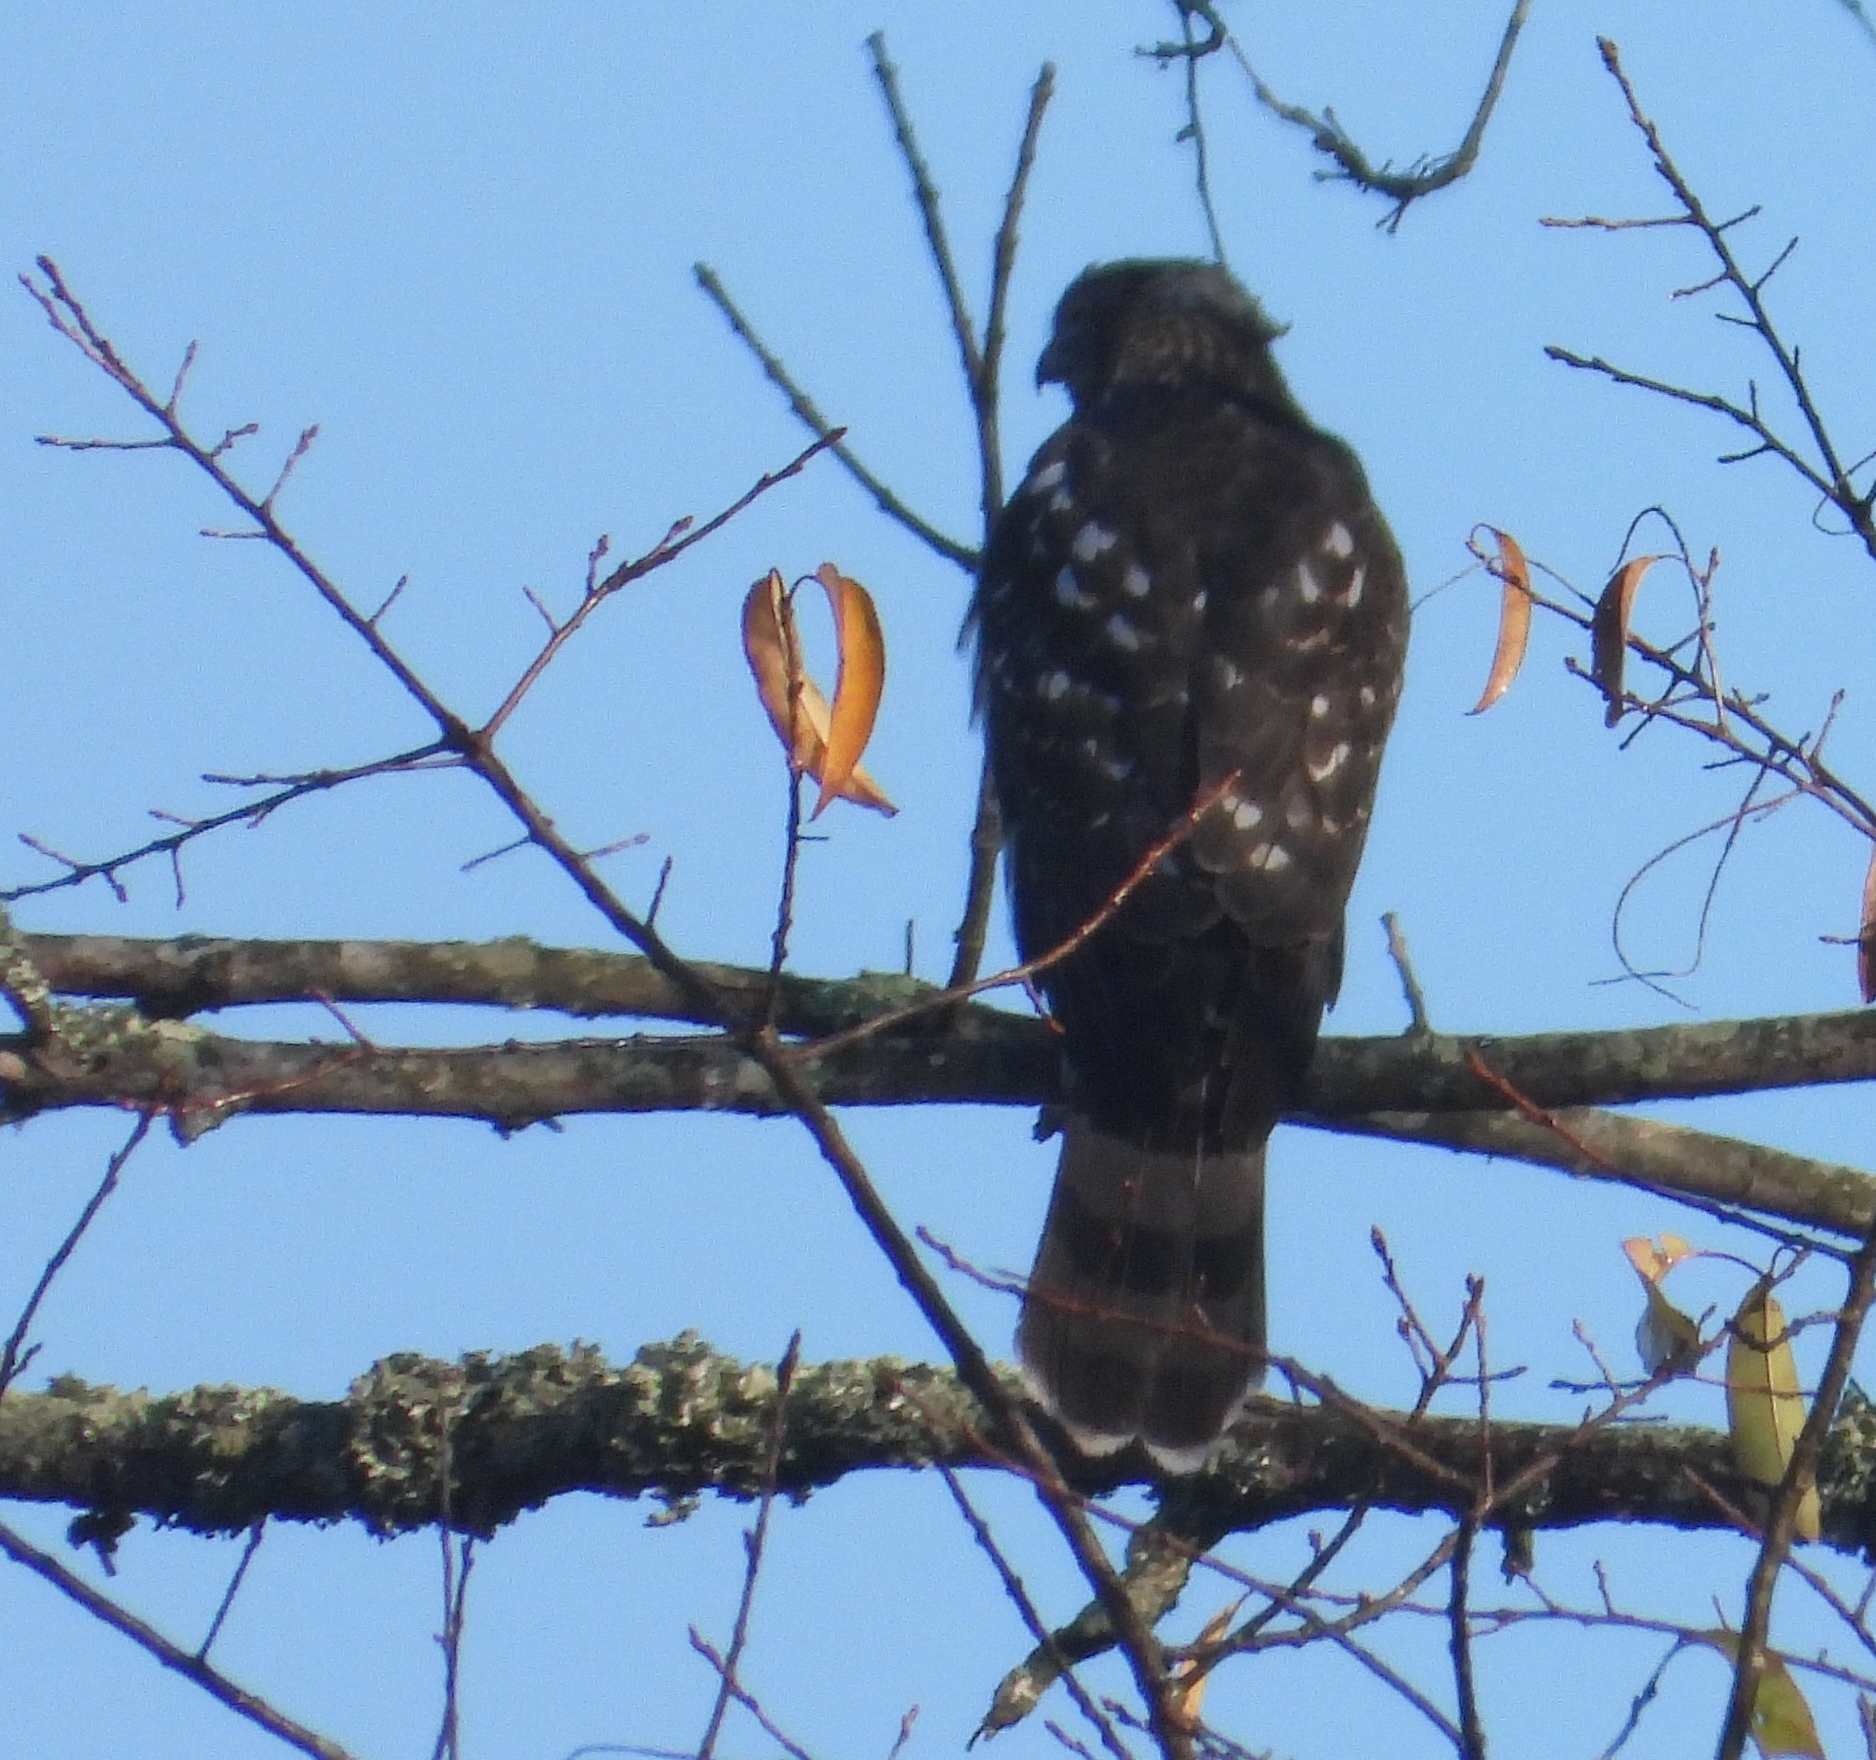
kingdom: Animalia
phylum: Chordata
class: Aves
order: Accipitriformes
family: Accipitridae
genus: Accipiter
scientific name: Accipiter cooperii
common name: Cooper's hawk
